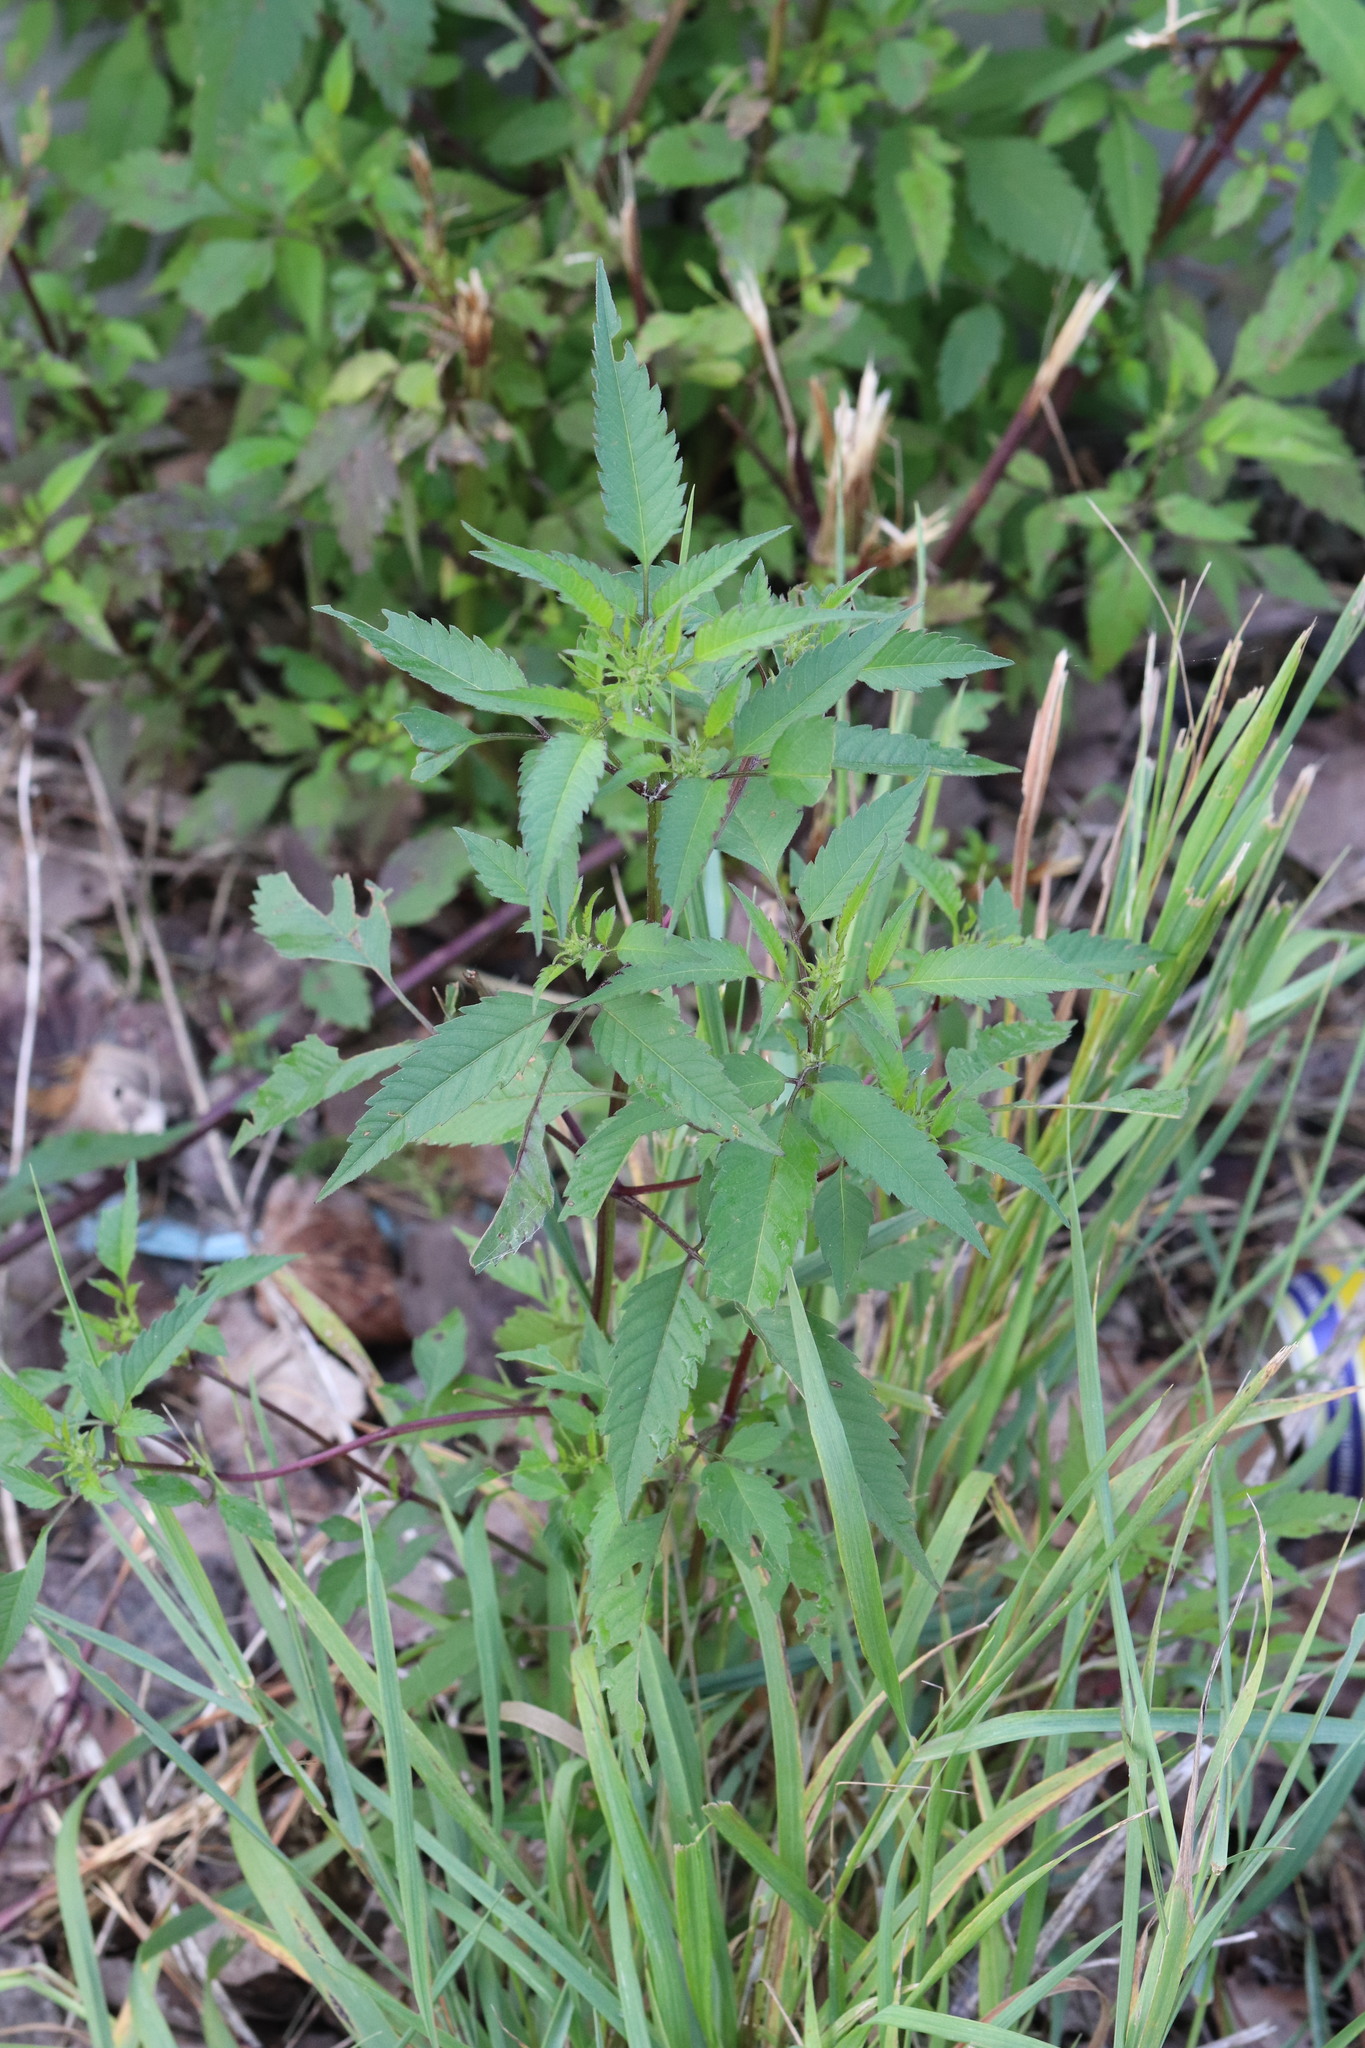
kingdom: Plantae
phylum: Tracheophyta
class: Magnoliopsida
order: Asterales
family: Asteraceae
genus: Bidens
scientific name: Bidens frondosa
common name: Beggarticks
